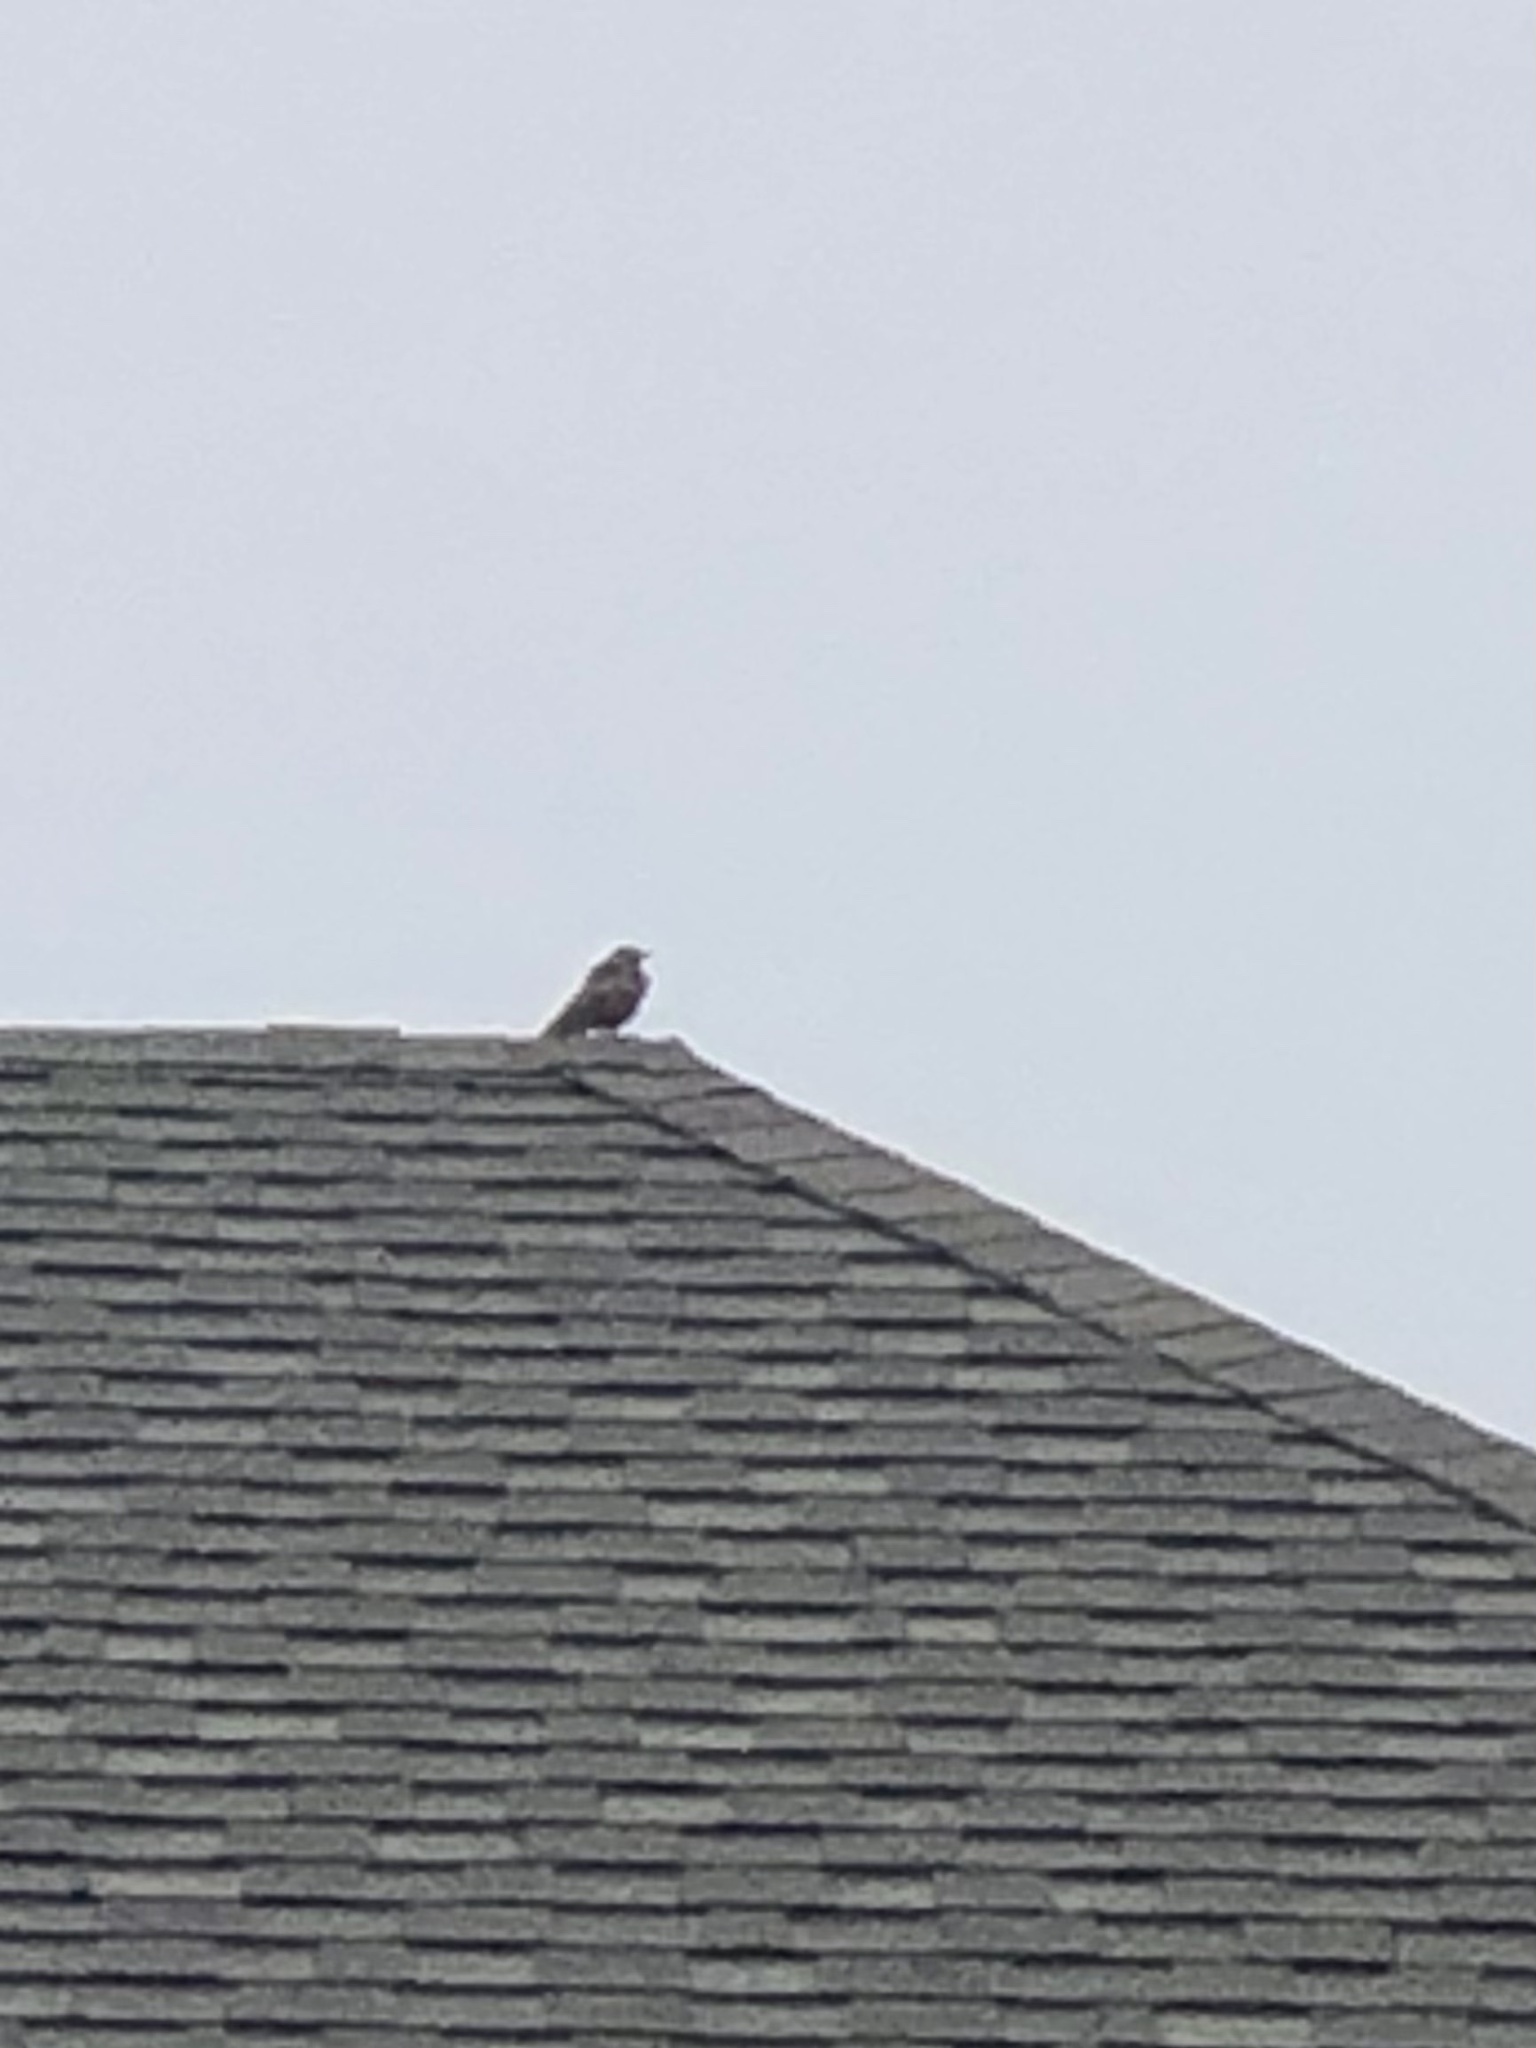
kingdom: Animalia
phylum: Chordata
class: Aves
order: Passeriformes
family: Turdidae
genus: Turdus
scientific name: Turdus migratorius
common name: American robin
